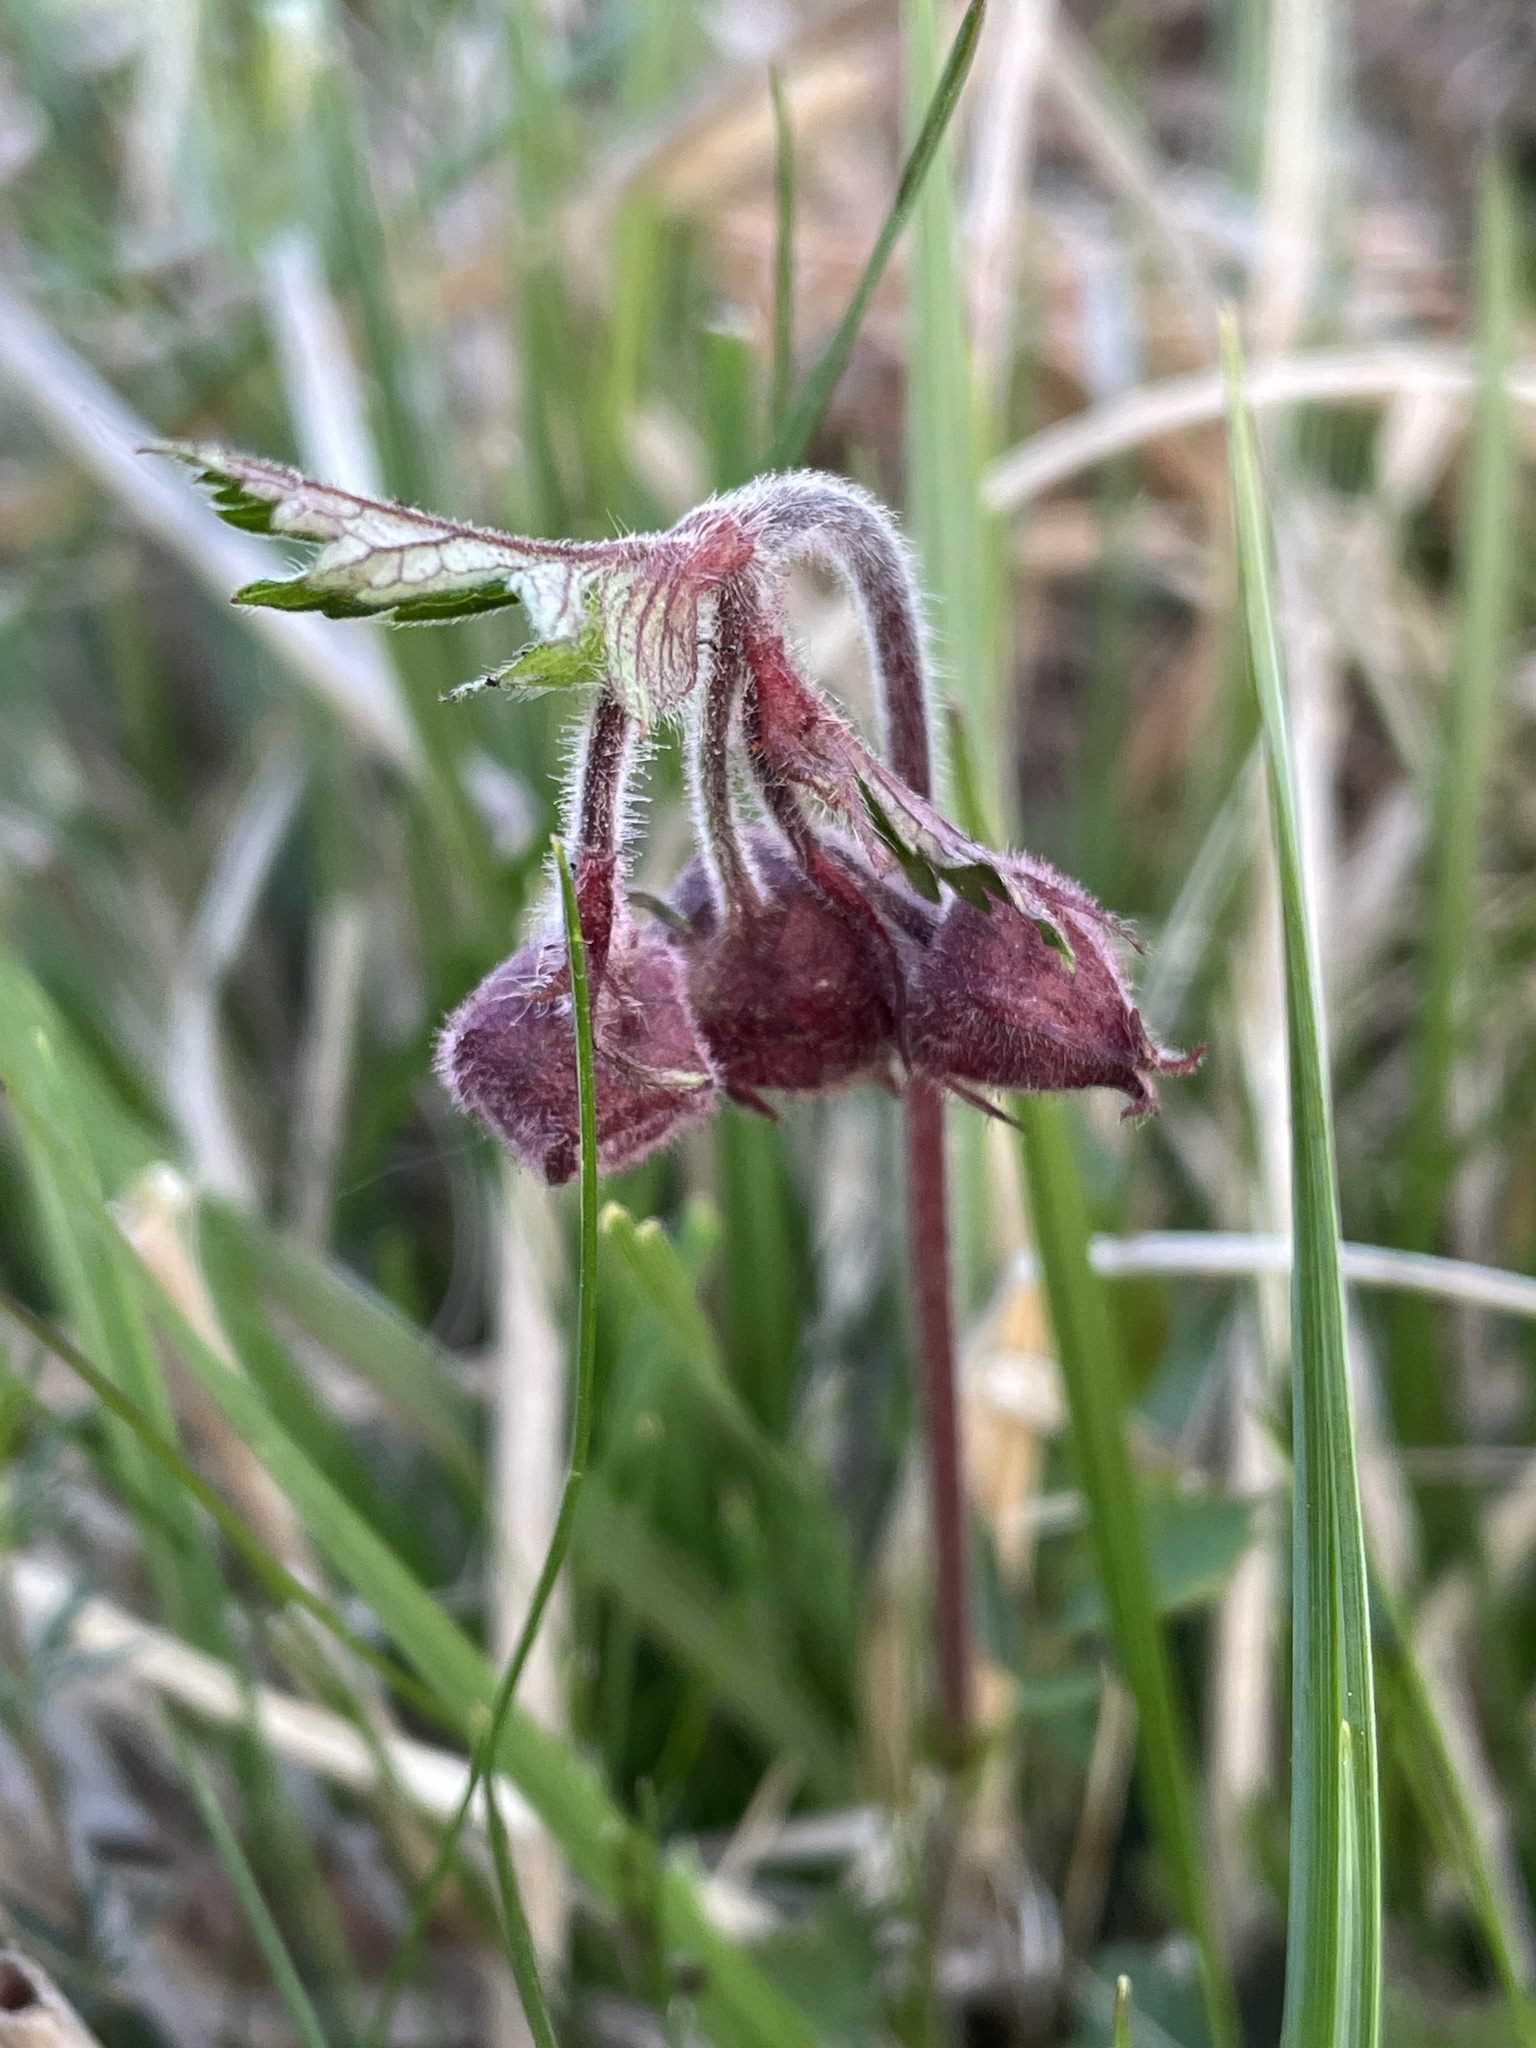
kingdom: Plantae
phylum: Tracheophyta
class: Magnoliopsida
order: Rosales
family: Rosaceae
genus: Geum
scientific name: Geum rivale
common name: Water avens
